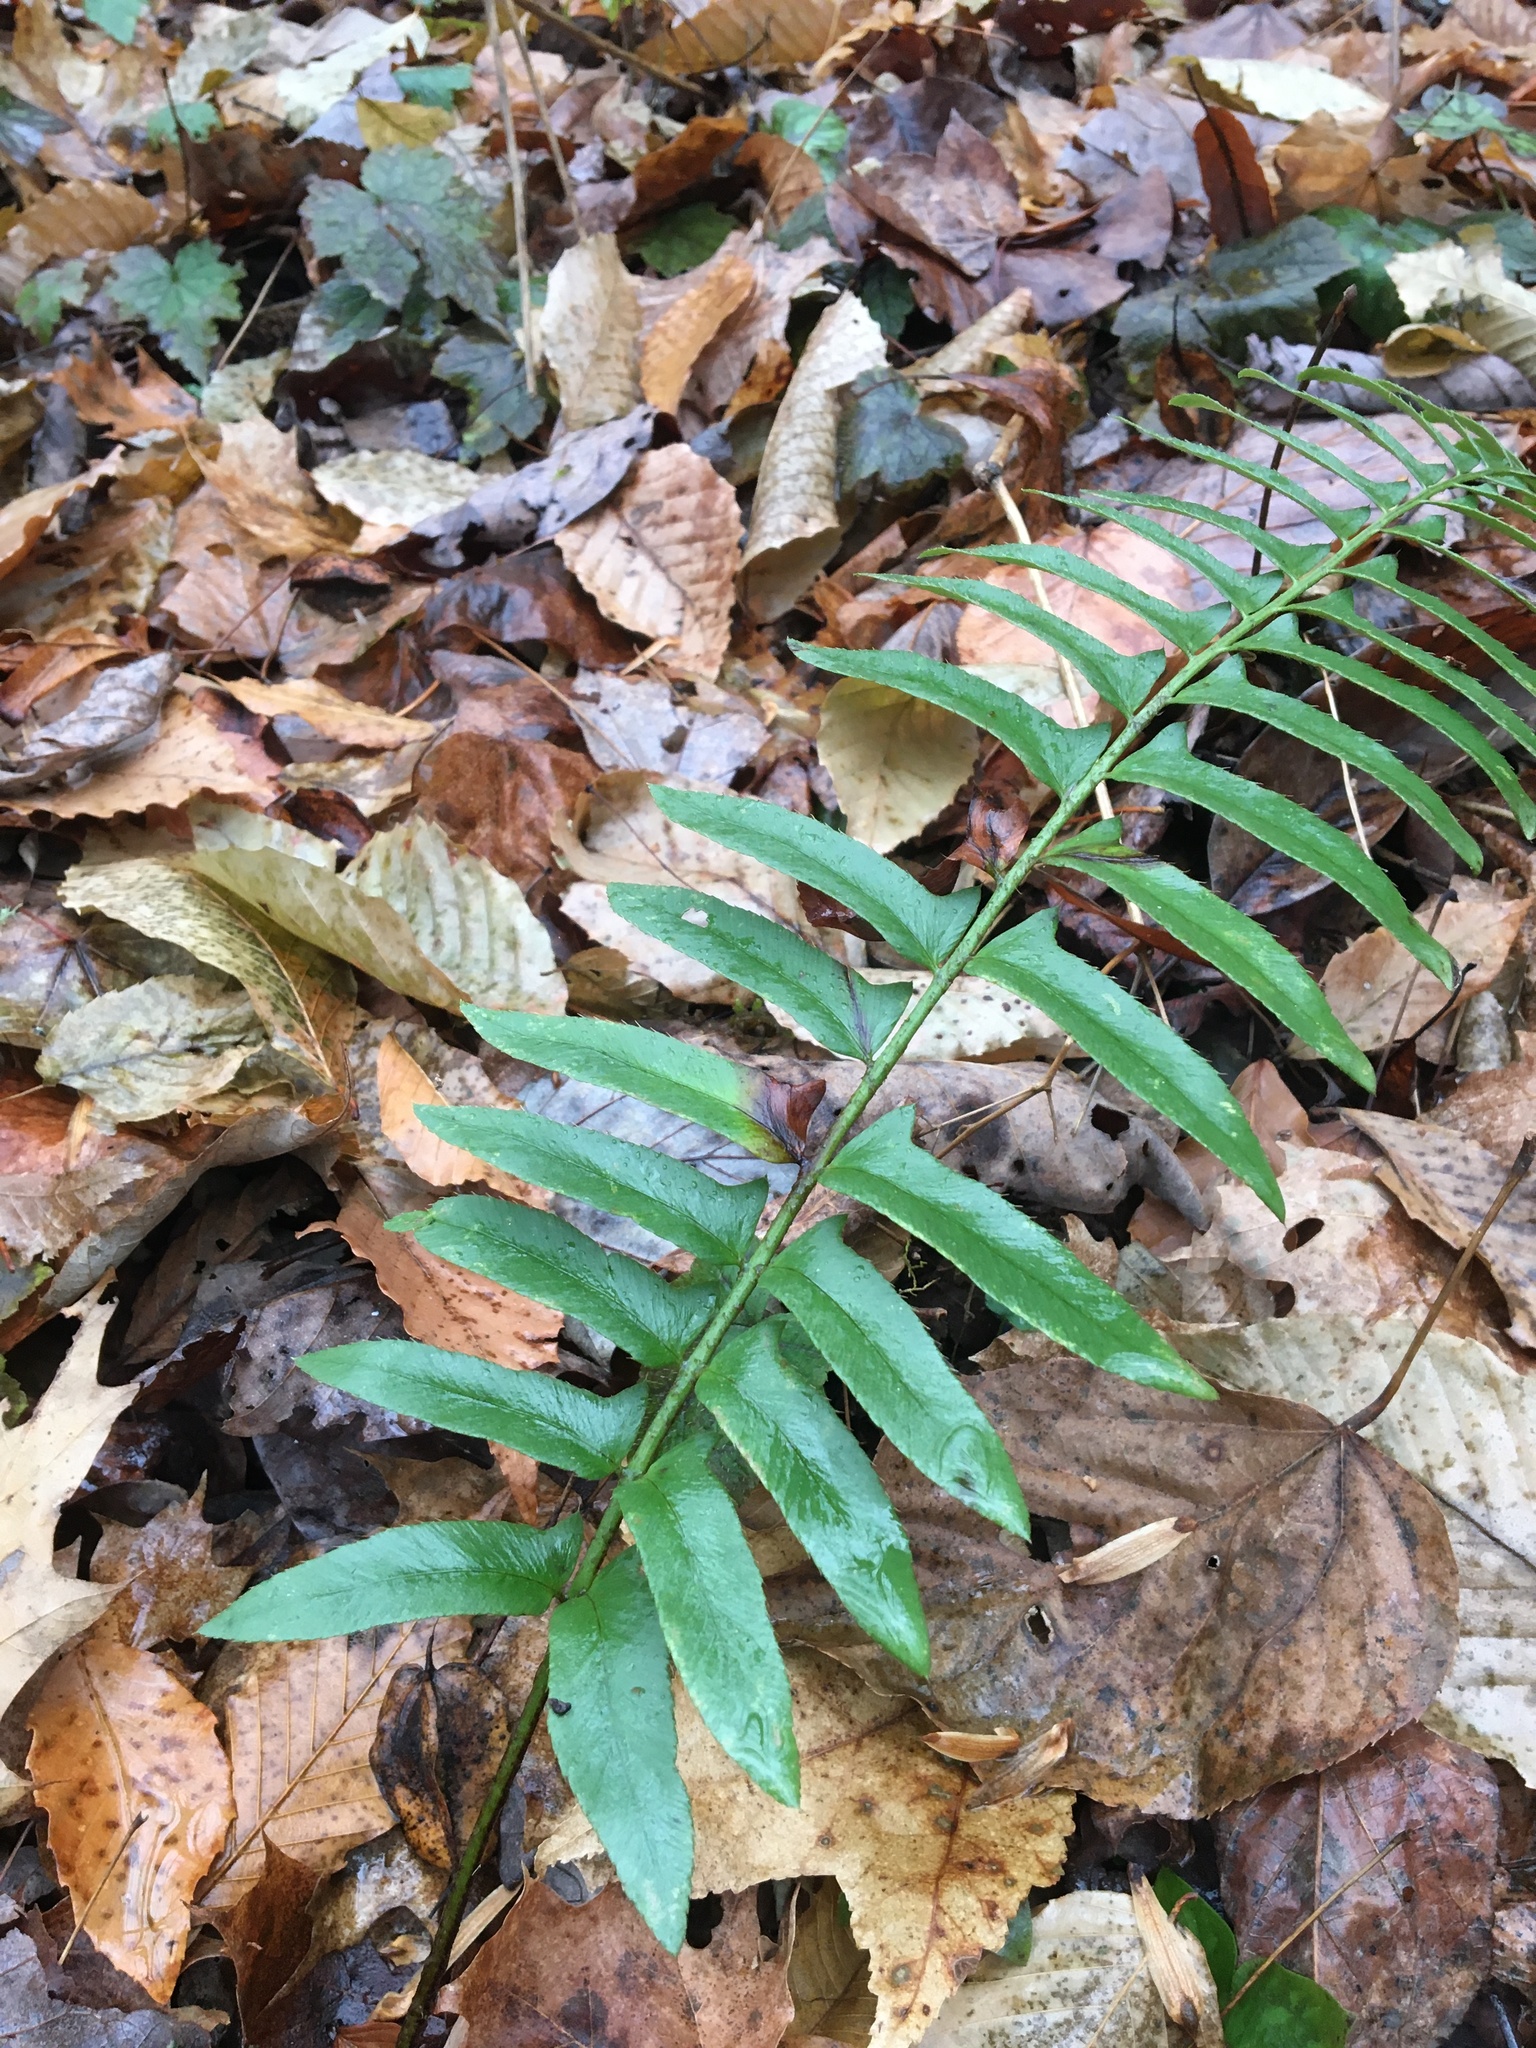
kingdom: Plantae
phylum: Tracheophyta
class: Polypodiopsida
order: Polypodiales
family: Dryopteridaceae
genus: Polystichum
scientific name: Polystichum acrostichoides
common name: Christmas fern
